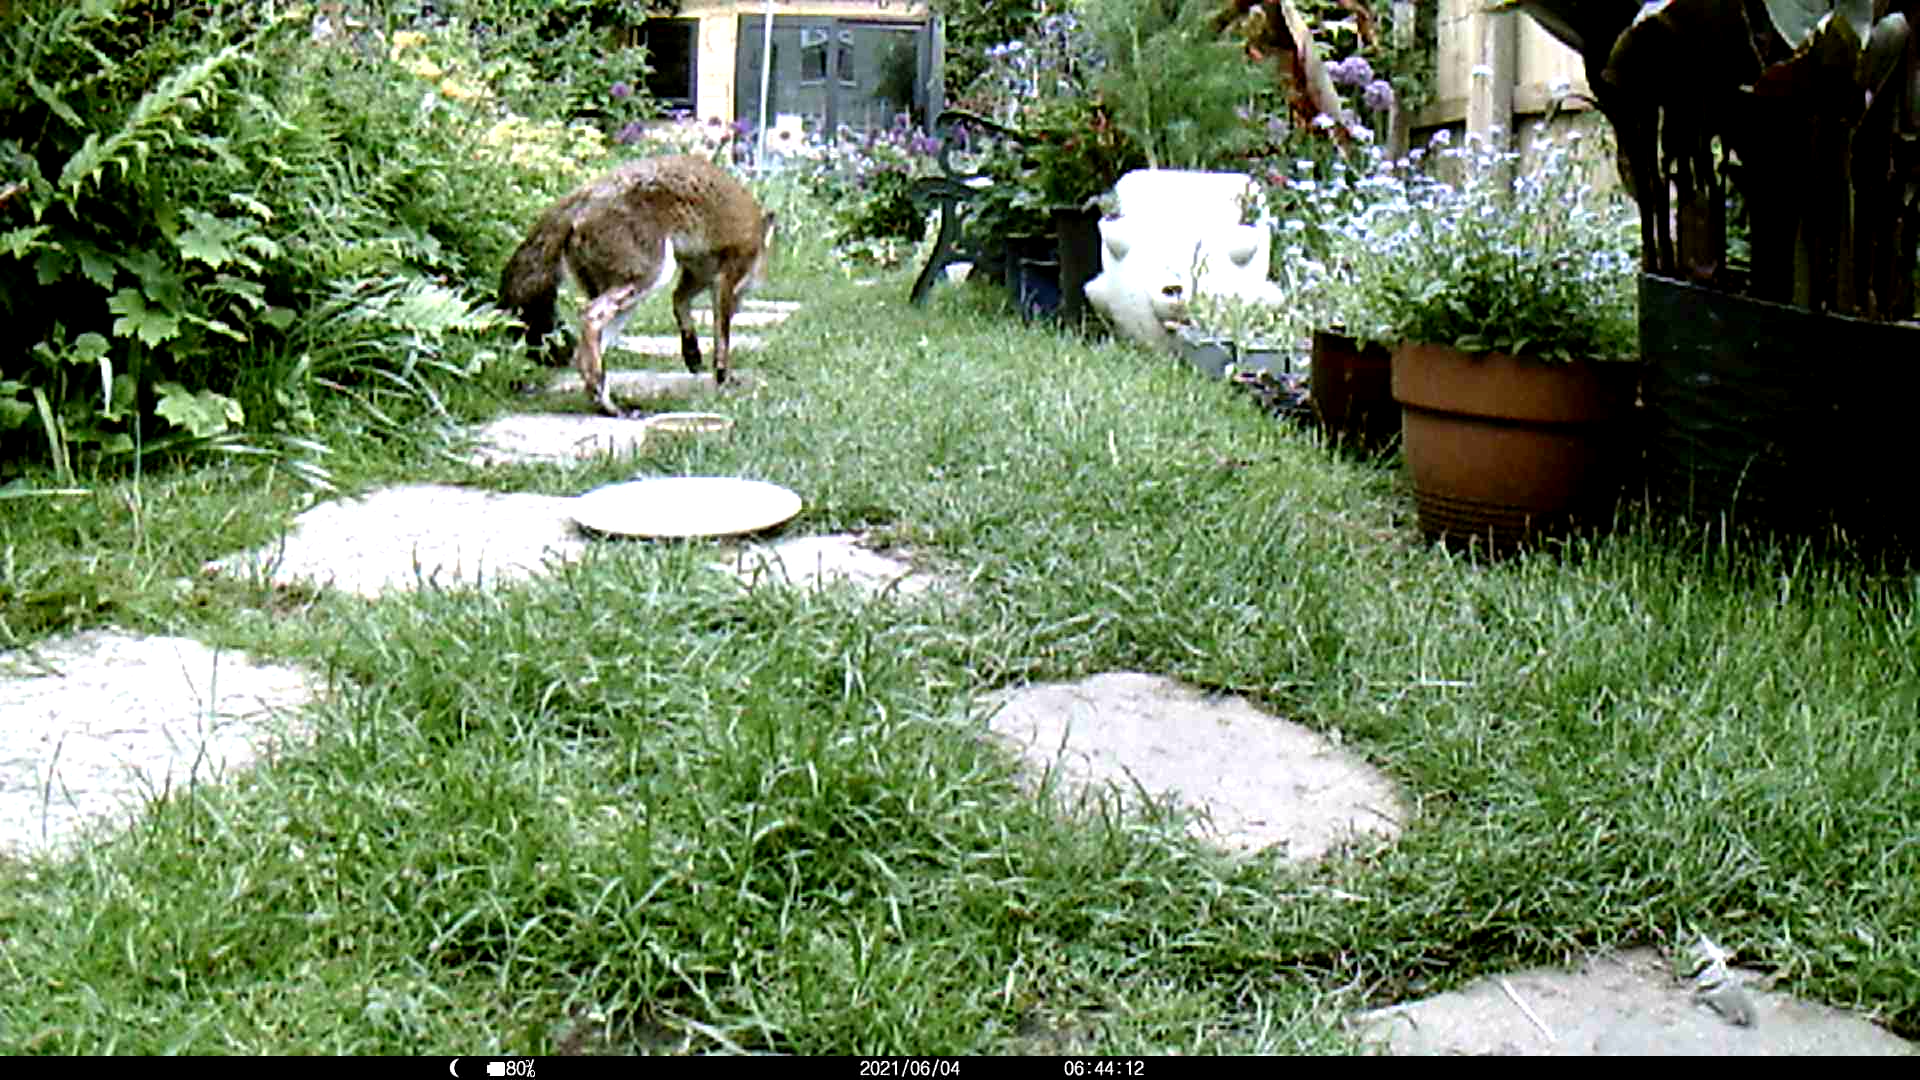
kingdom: Animalia
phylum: Chordata
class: Mammalia
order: Carnivora
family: Canidae
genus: Vulpes
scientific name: Vulpes vulpes
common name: Red fox
